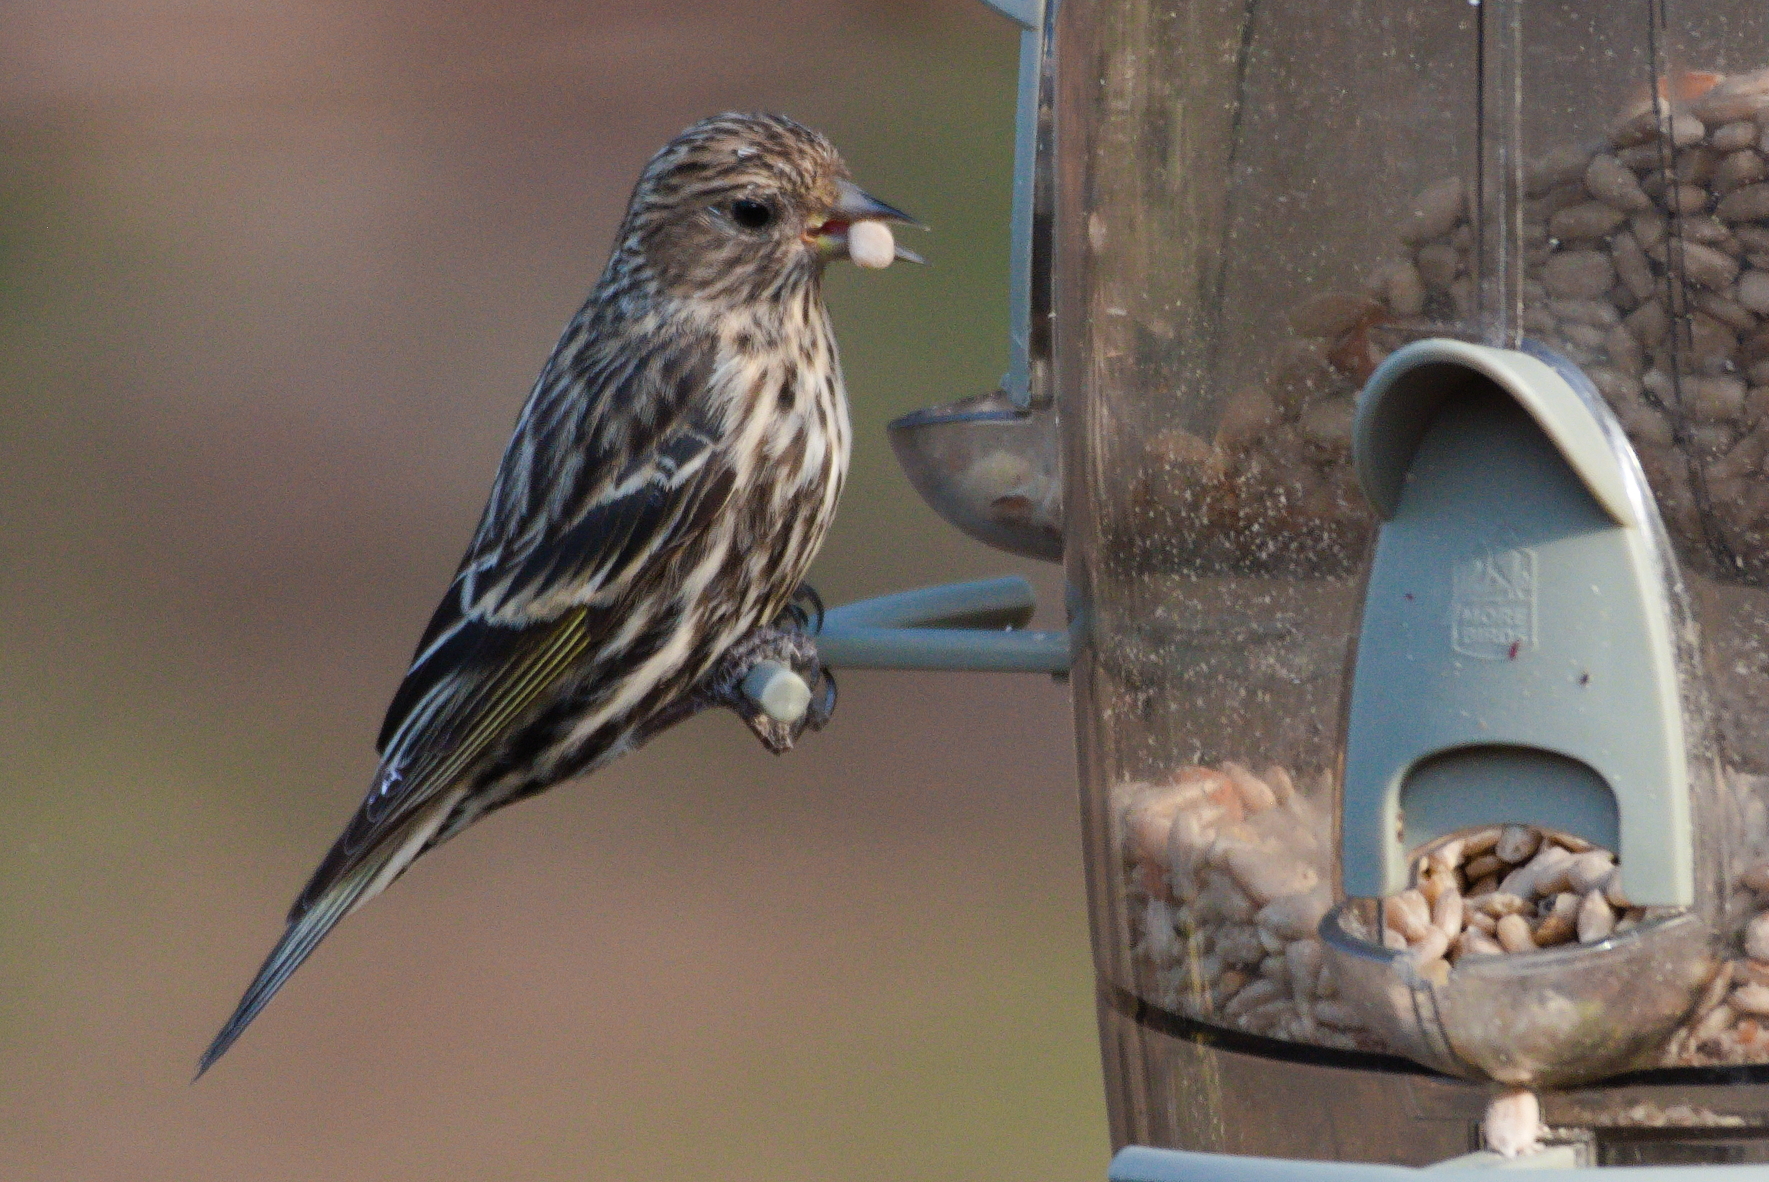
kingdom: Animalia
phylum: Chordata
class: Aves
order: Passeriformes
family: Fringillidae
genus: Spinus
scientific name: Spinus pinus
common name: Pine siskin
